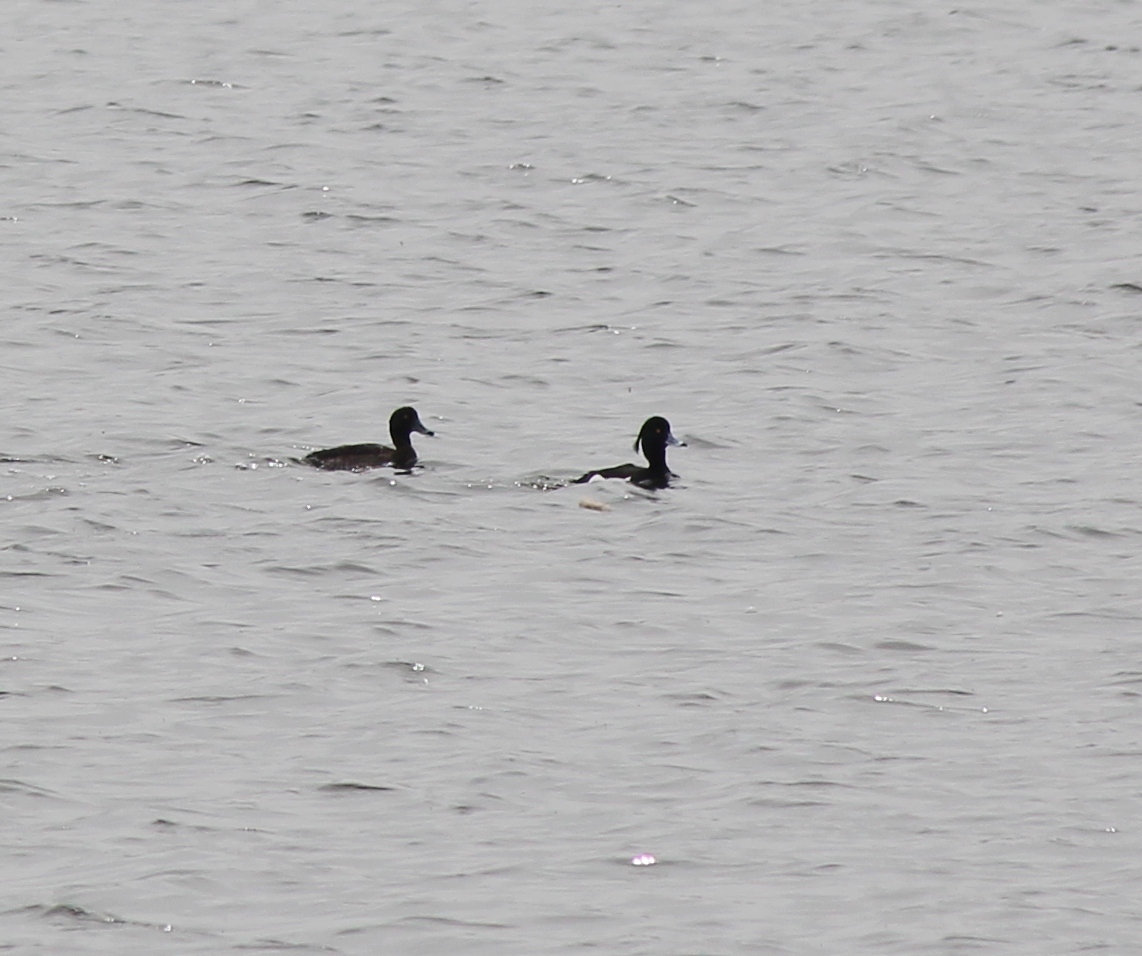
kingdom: Animalia
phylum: Chordata
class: Aves
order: Anseriformes
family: Anatidae
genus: Aythya
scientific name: Aythya fuligula
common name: Tufted duck
